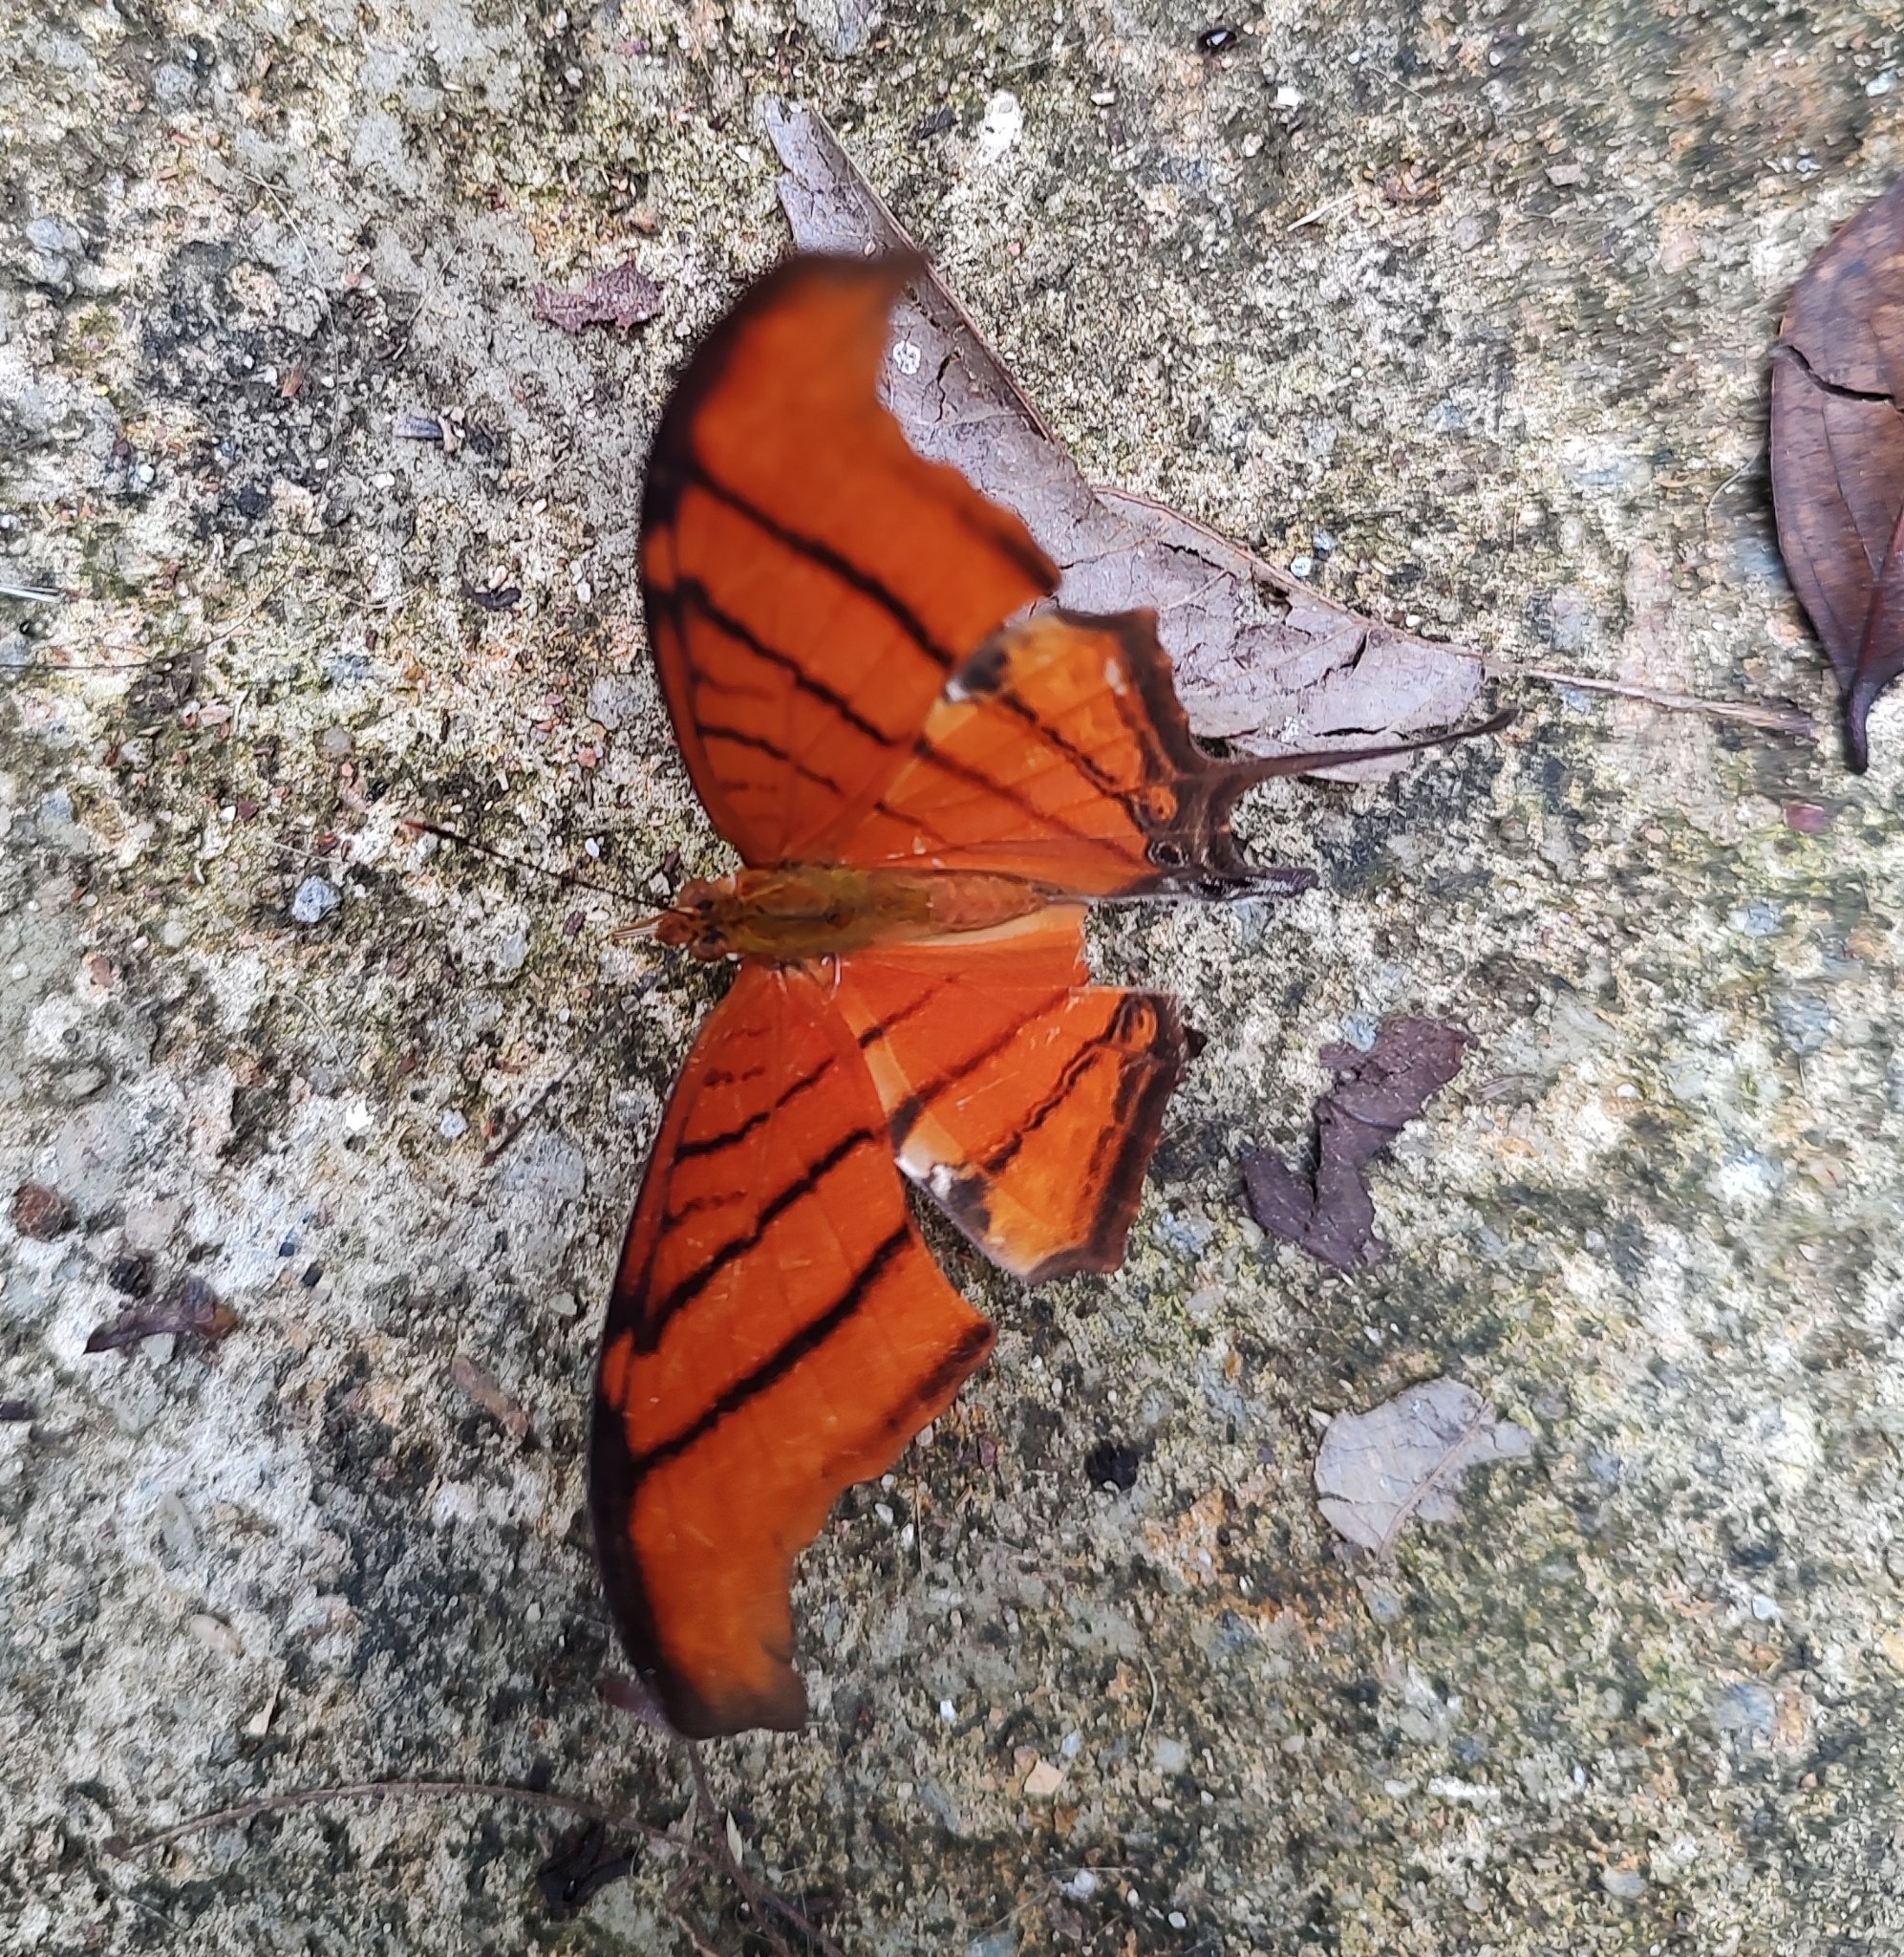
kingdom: Animalia
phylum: Arthropoda
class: Insecta
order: Lepidoptera
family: Nymphalidae
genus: Marpesia
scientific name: Marpesia petreus
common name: Red dagger wing
